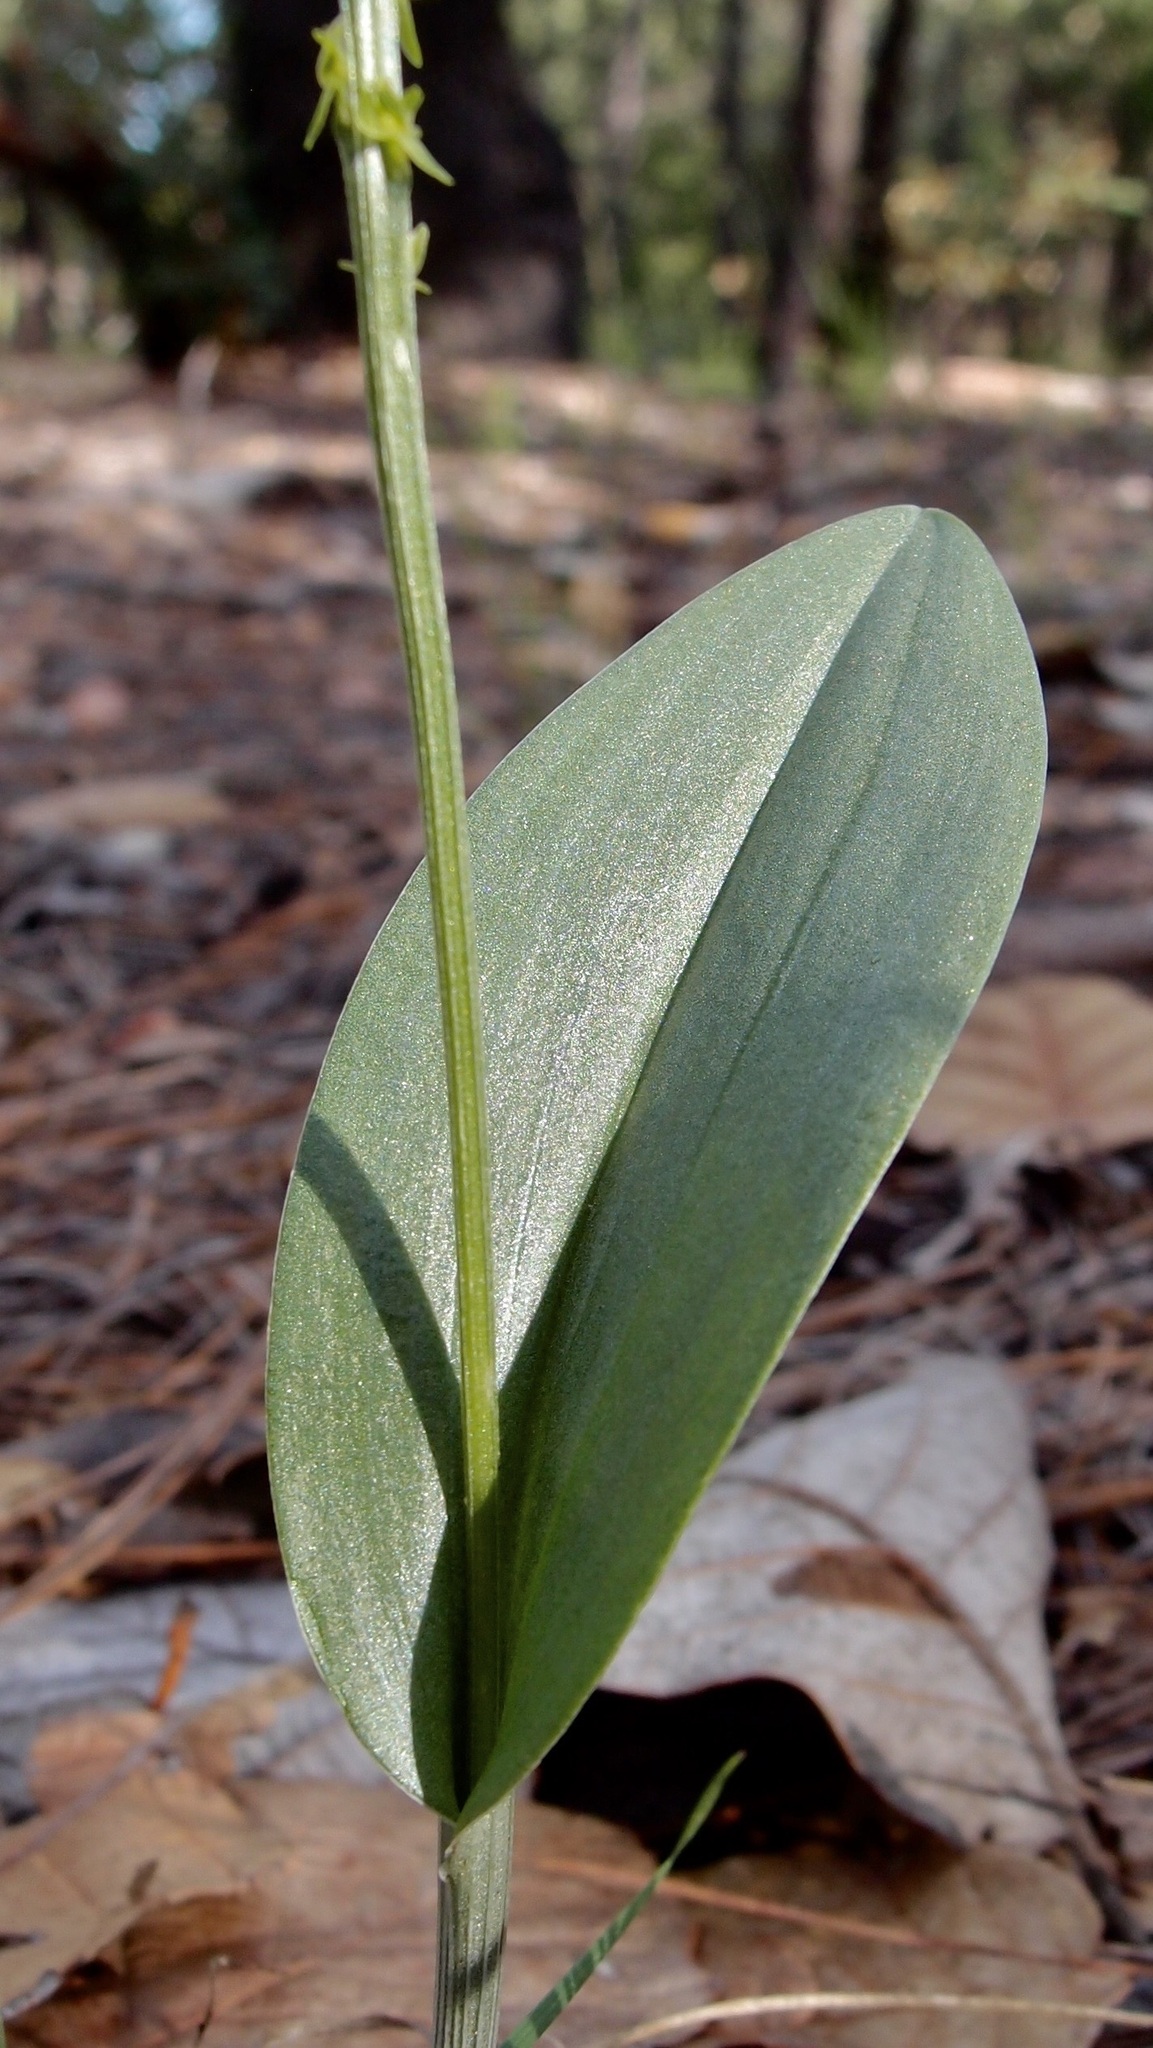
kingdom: Plantae
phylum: Tracheophyta
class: Liliopsida
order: Asparagales
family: Orchidaceae
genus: Malaxis
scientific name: Malaxis macrostachya
